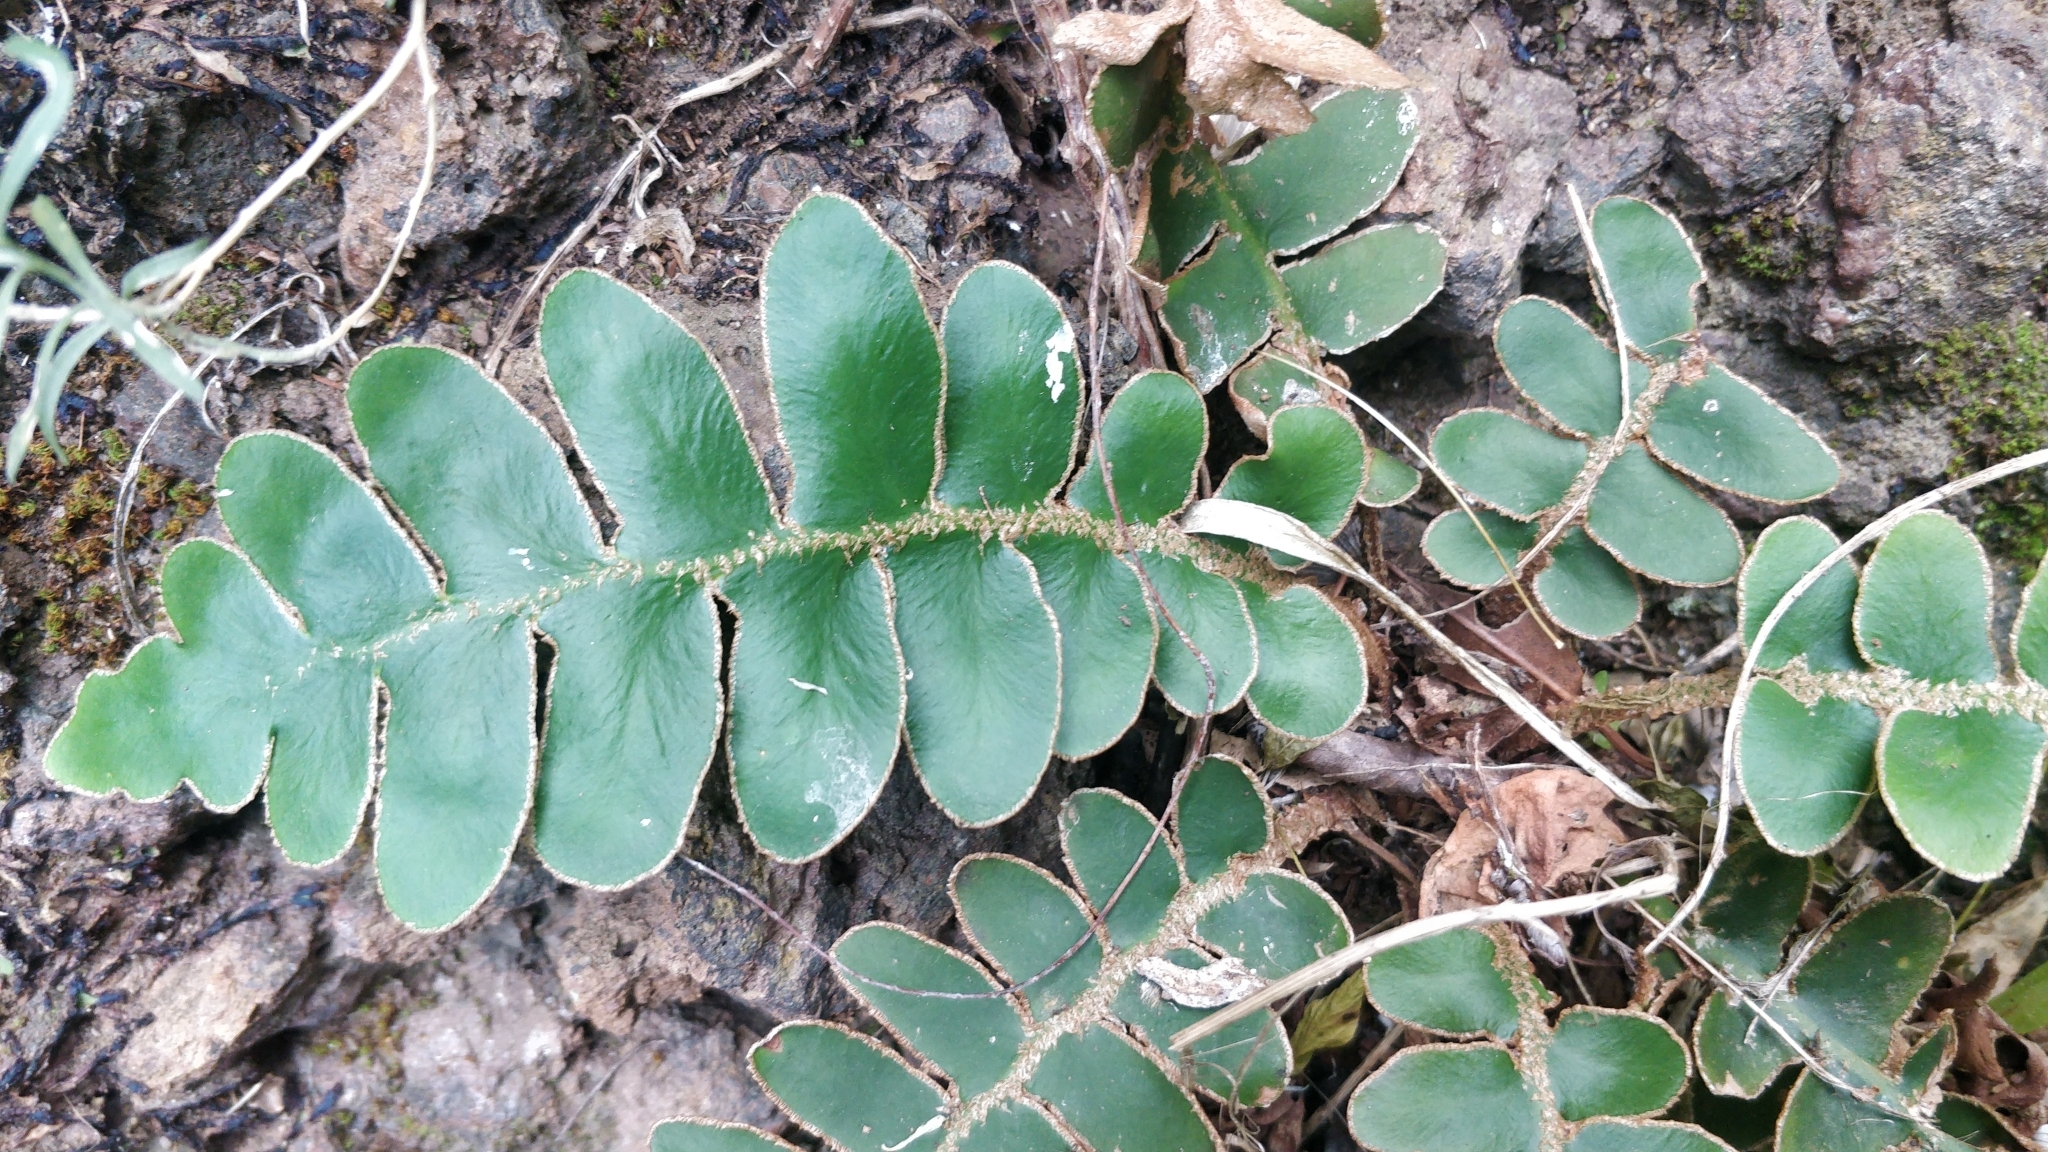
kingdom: Plantae
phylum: Tracheophyta
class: Polypodiopsida
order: Polypodiales
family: Aspleniaceae
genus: Asplenium
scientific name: Asplenium aureum
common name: Golden rustyback fern
